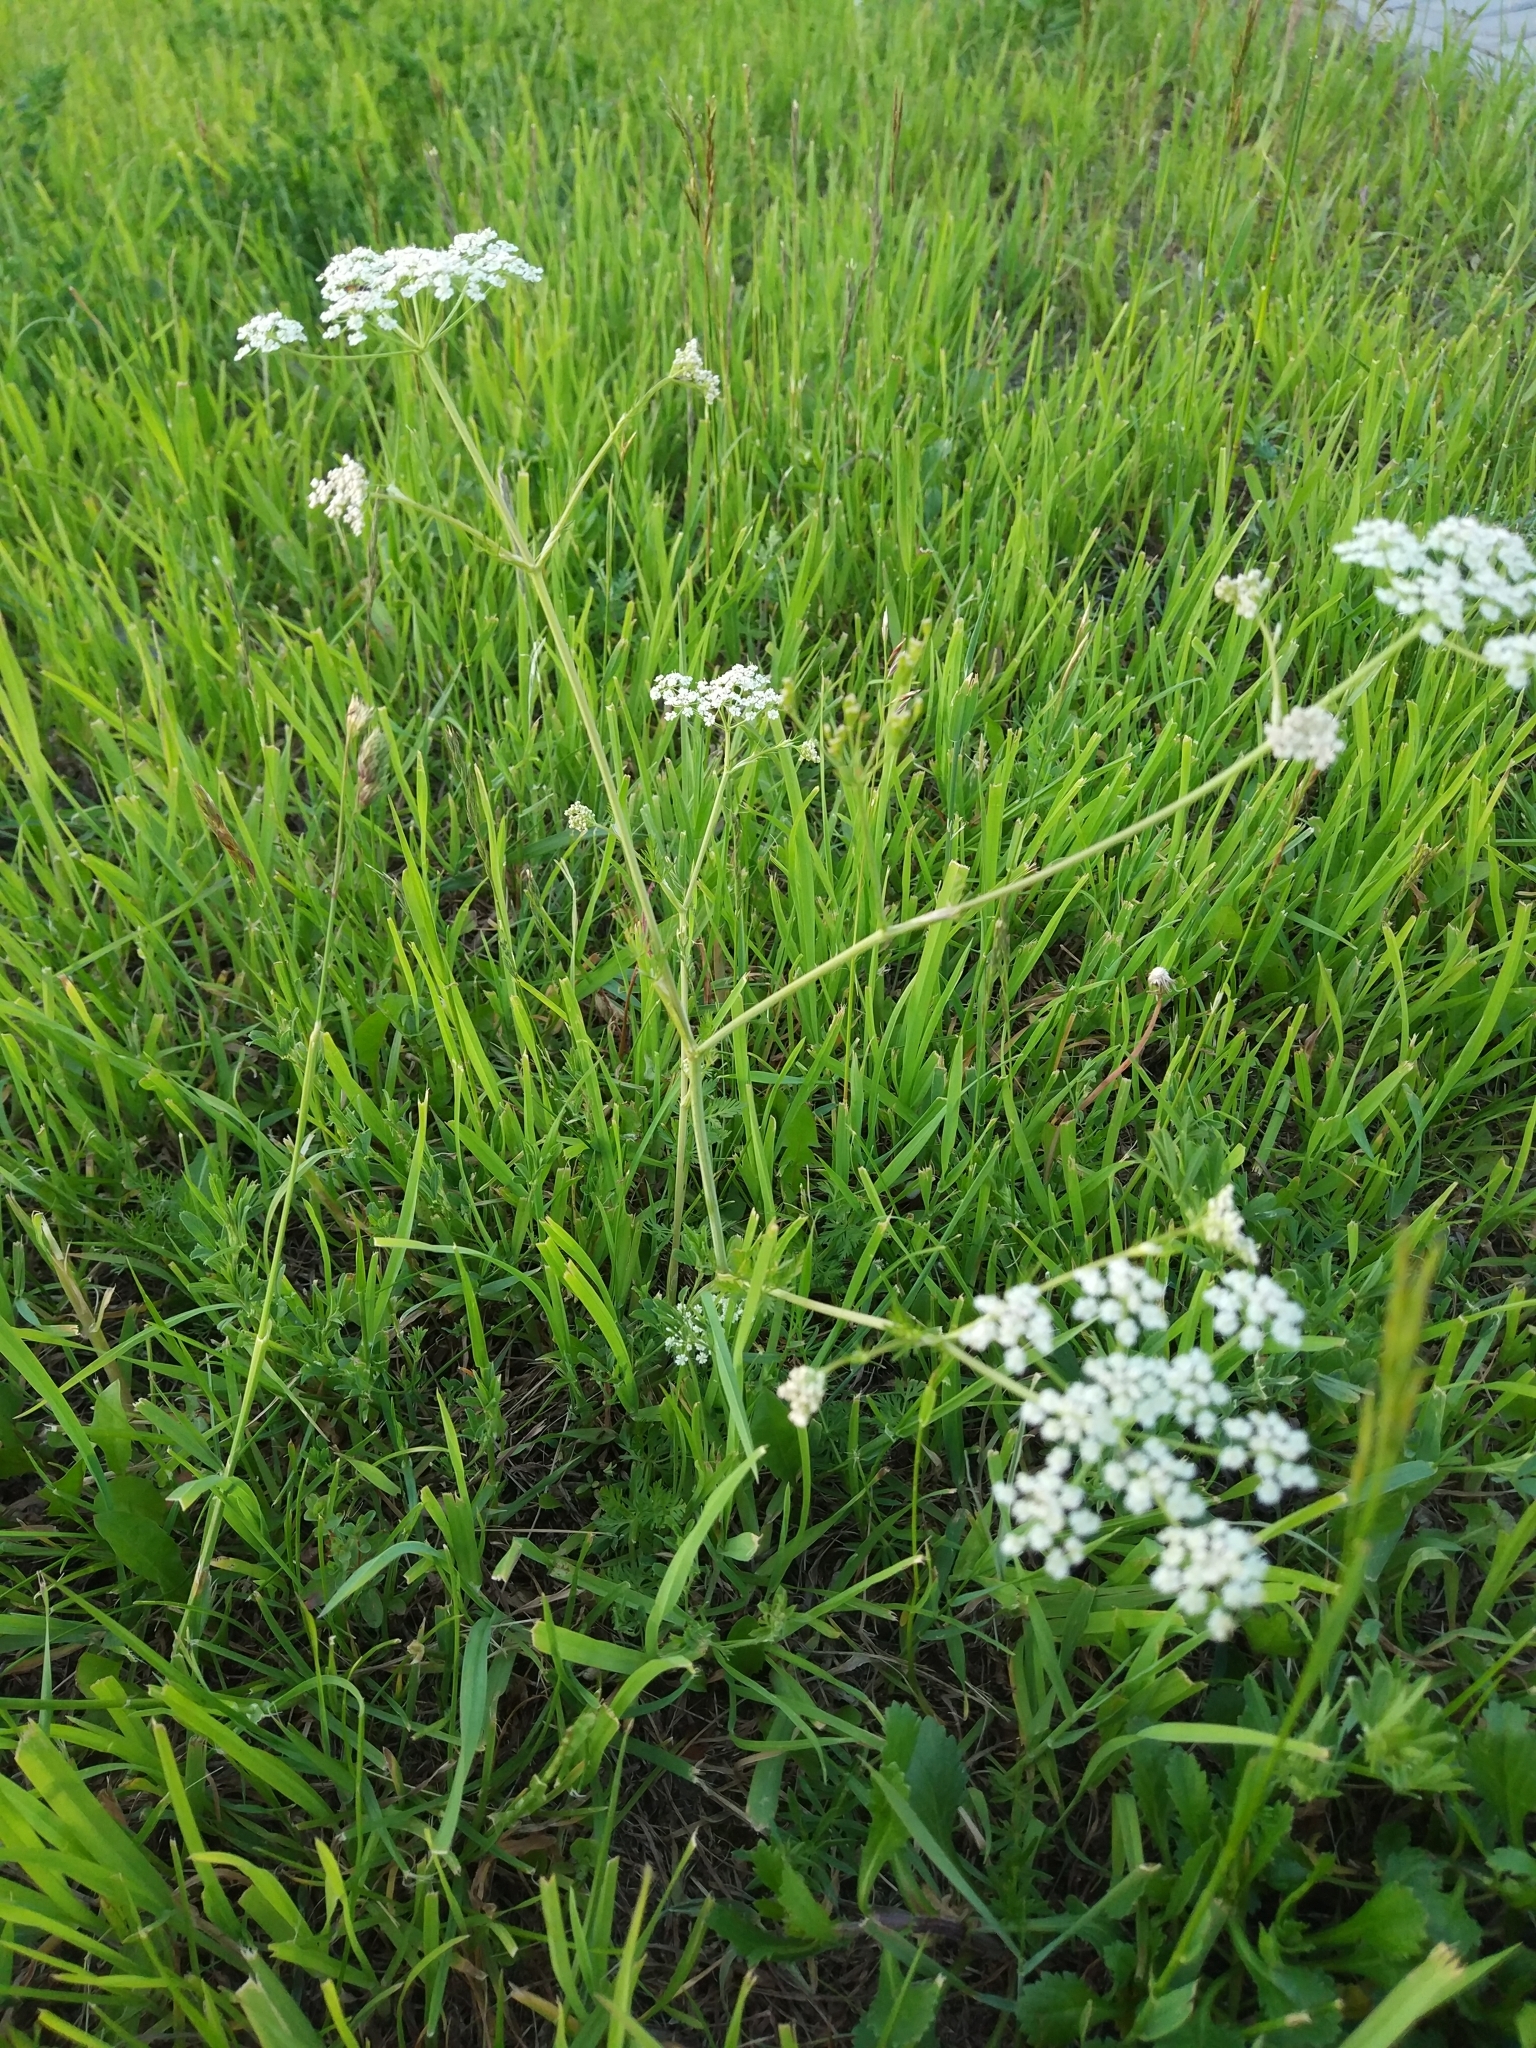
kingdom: Plantae
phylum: Tracheophyta
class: Magnoliopsida
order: Apiales
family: Apiaceae
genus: Carum
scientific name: Carum carvi
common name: Caraway
